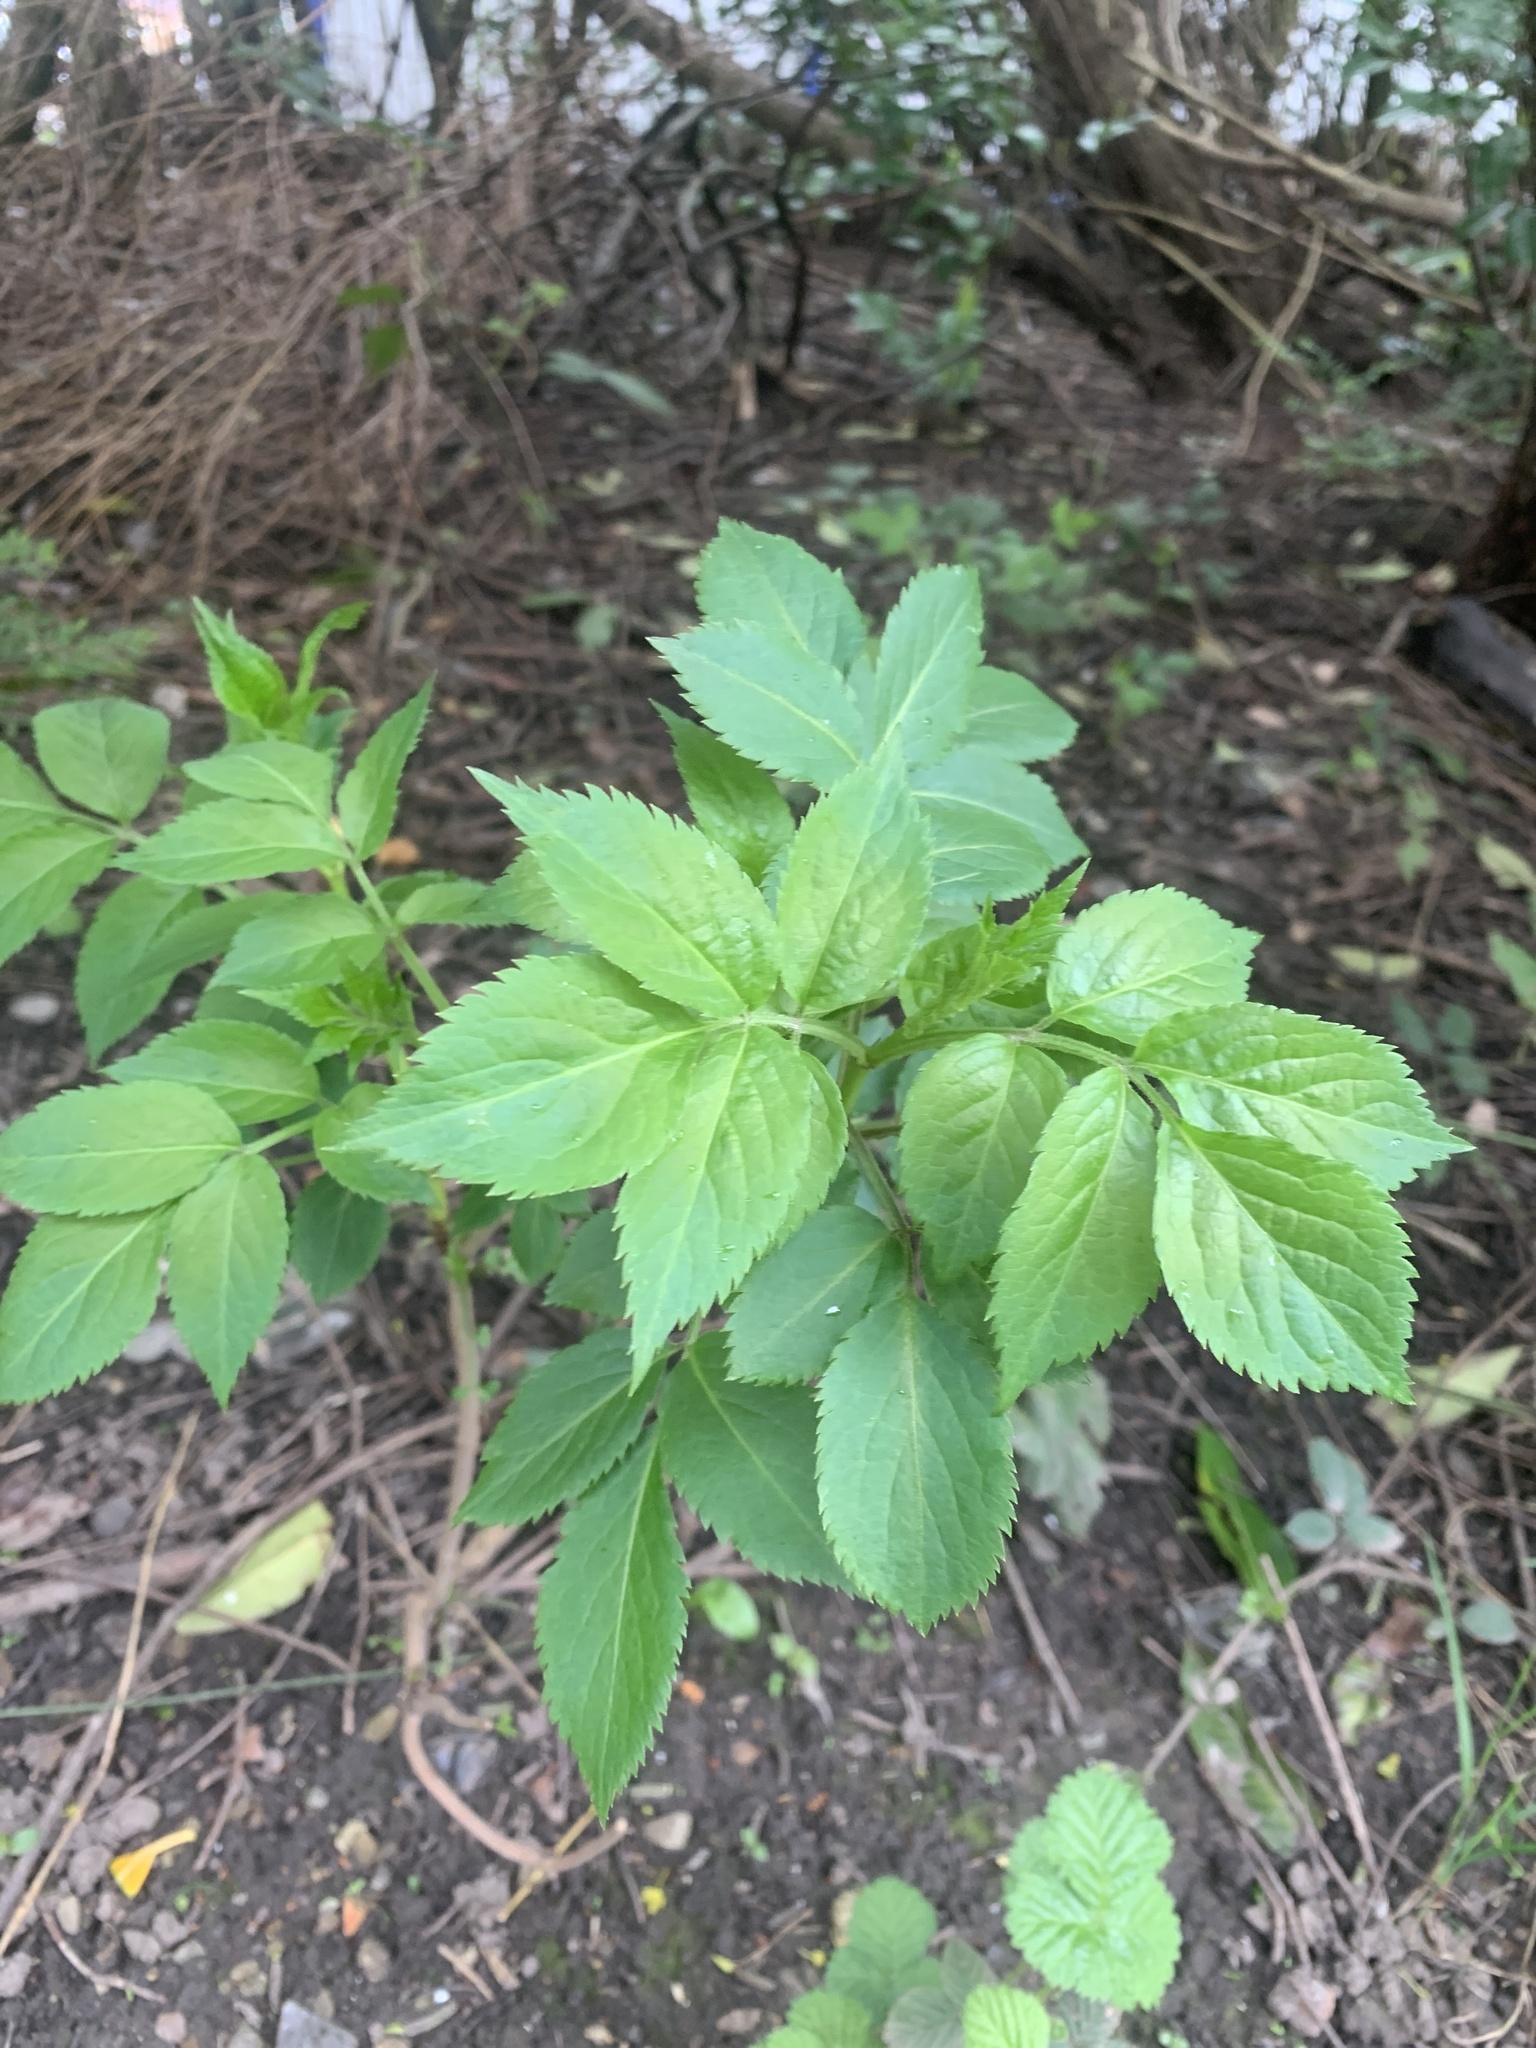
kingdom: Plantae
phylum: Tracheophyta
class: Magnoliopsida
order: Dipsacales
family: Viburnaceae
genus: Sambucus
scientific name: Sambucus nigra
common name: Elder
